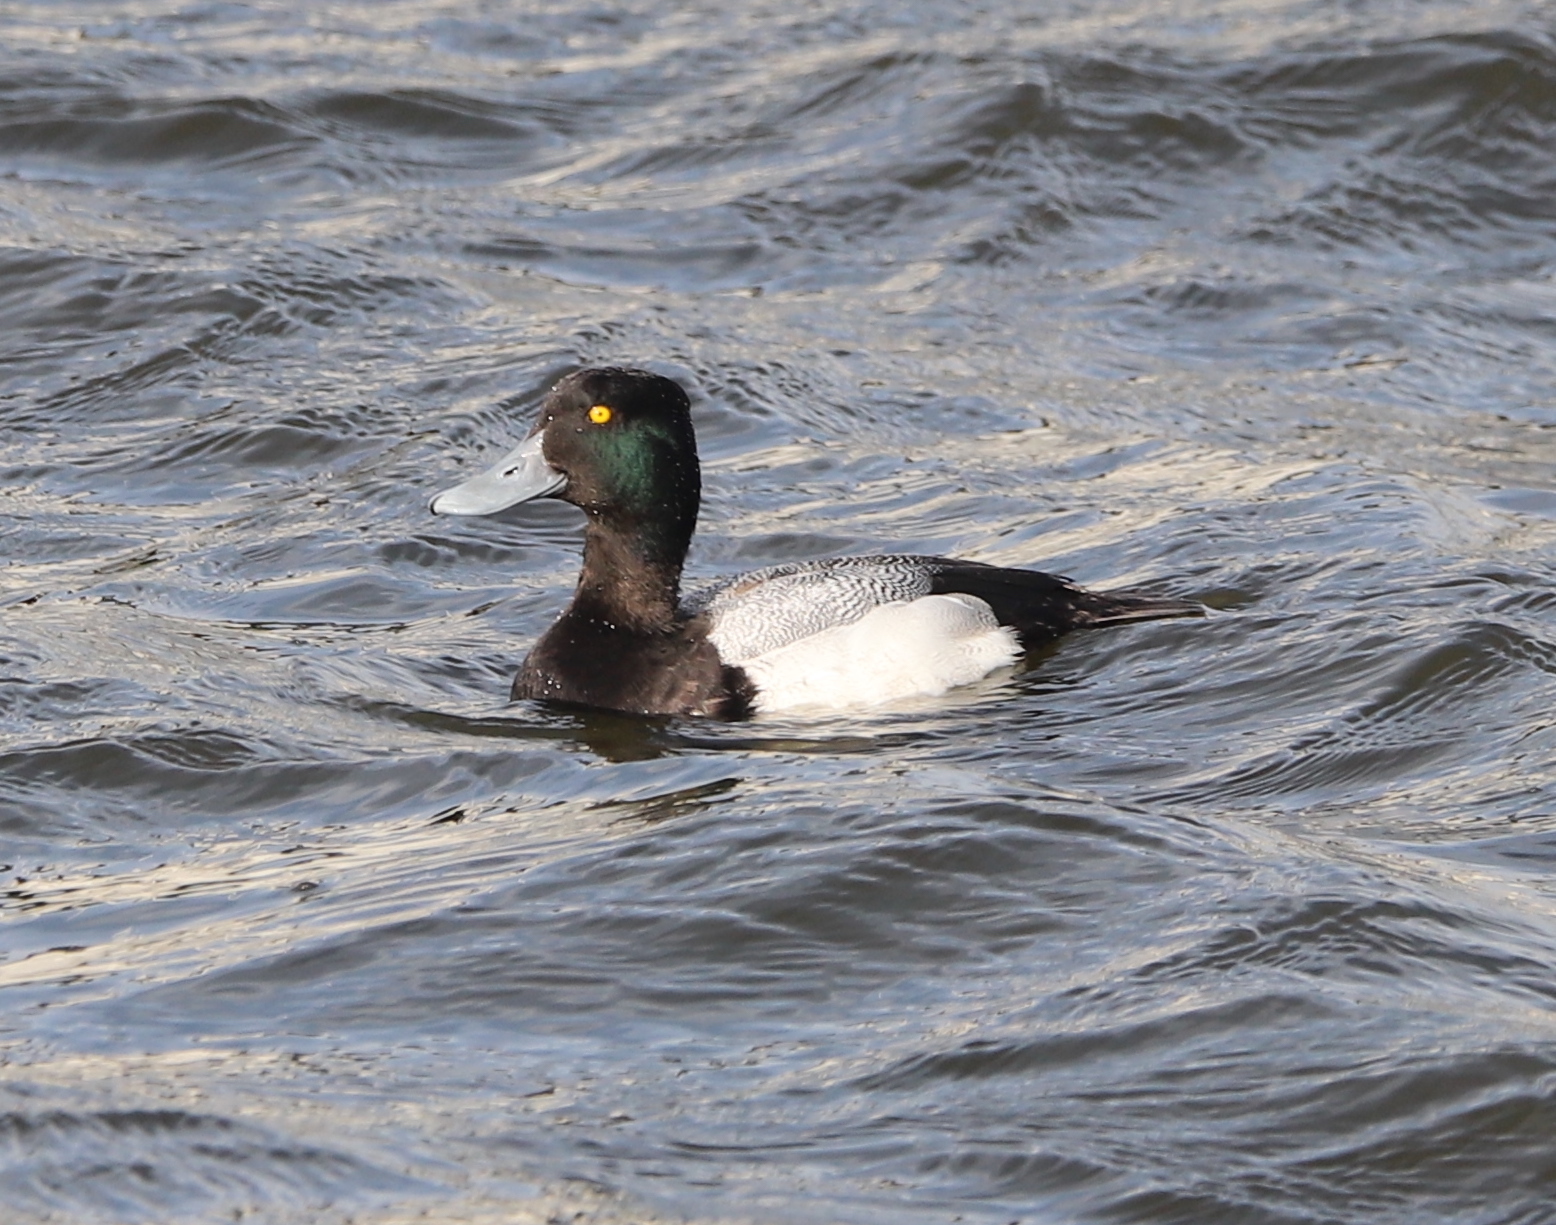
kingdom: Animalia
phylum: Chordata
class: Aves
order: Anseriformes
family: Anatidae
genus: Aythya
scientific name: Aythya marila
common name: Greater scaup
